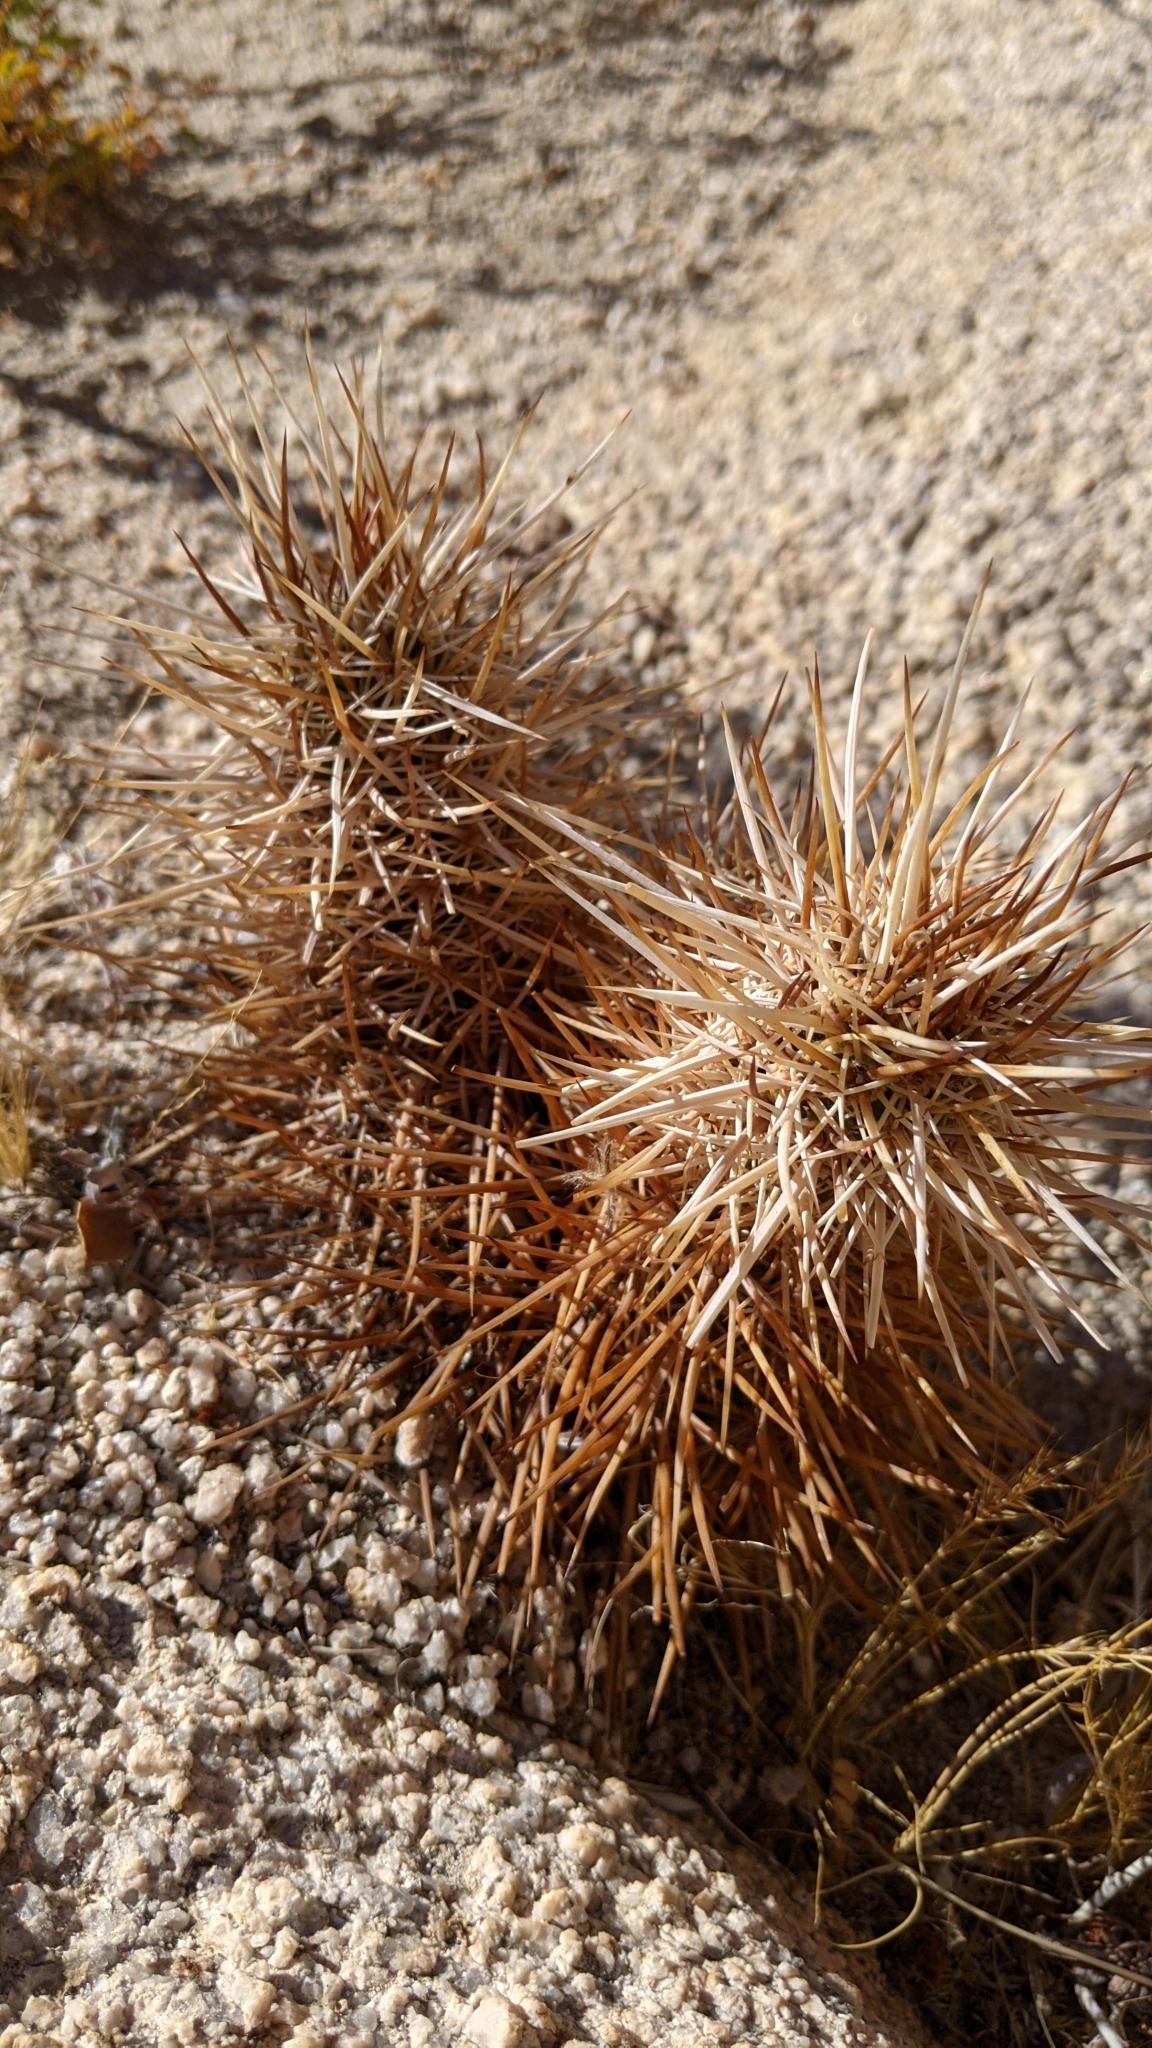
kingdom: Plantae
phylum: Tracheophyta
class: Magnoliopsida
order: Caryophyllales
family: Cactaceae
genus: Echinocereus
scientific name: Echinocereus engelmannii
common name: Engelmann's hedgehog cactus
